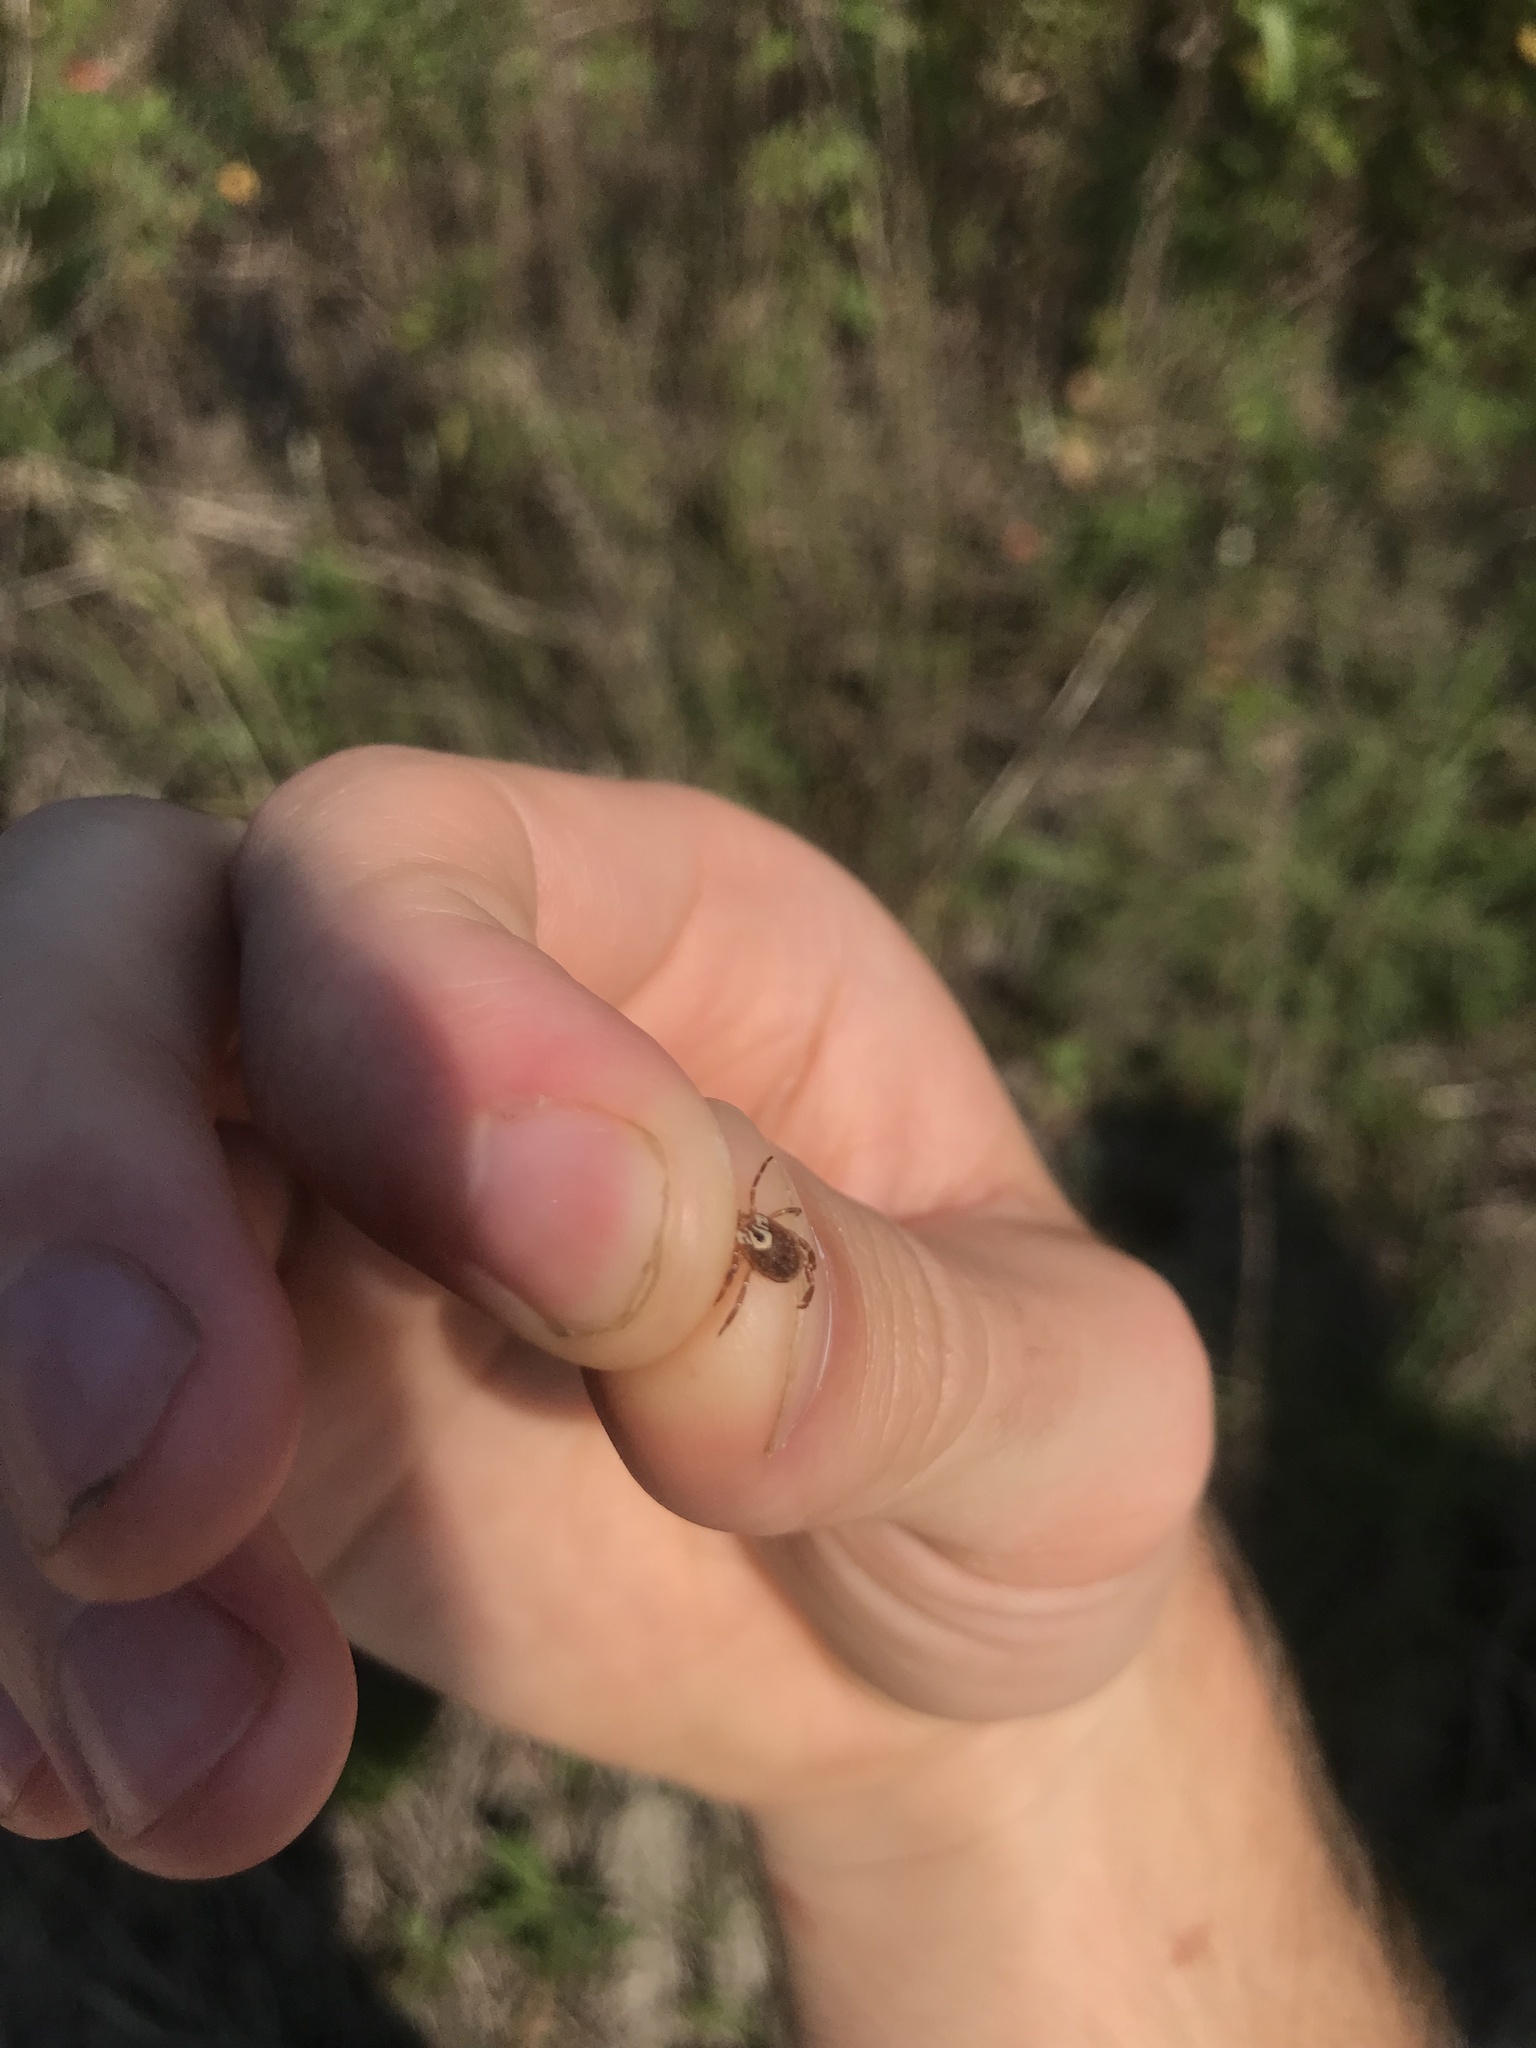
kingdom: Animalia
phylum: Arthropoda
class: Arachnida
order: Ixodida
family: Ixodidae
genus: Amblyomma
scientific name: Amblyomma maculatum
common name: Gulf coast tick
